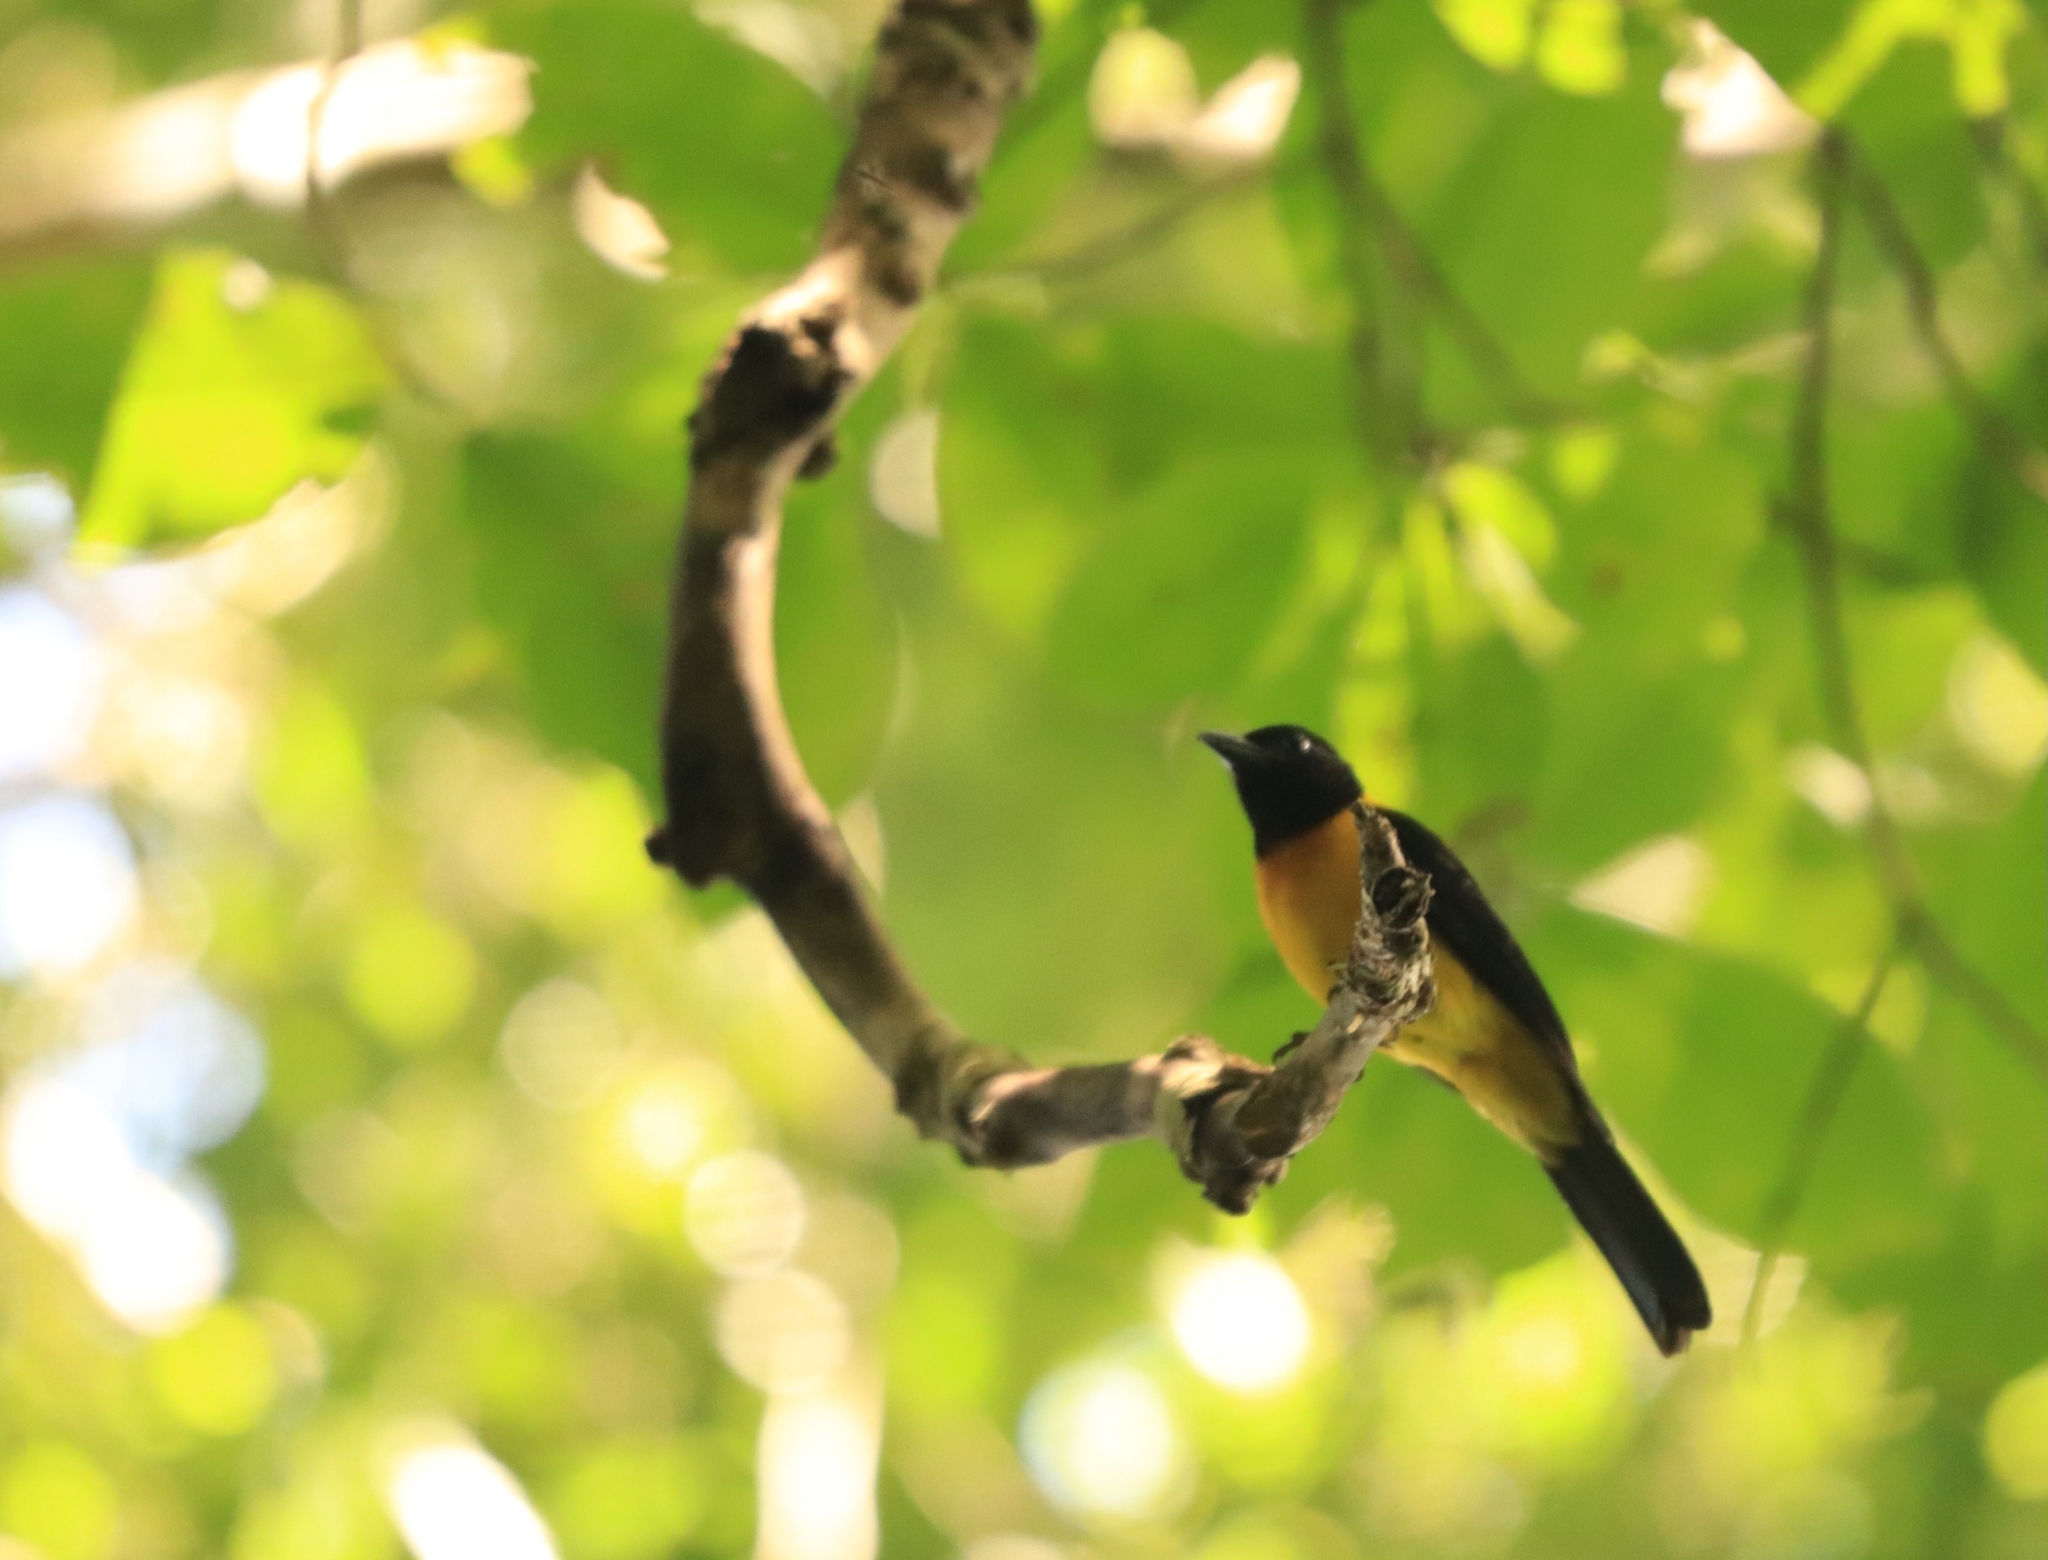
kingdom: Animalia
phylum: Chordata
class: Aves
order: Passeriformes
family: Thraupidae
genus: Lanio
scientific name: Lanio aurantius
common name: Black-throated shrike-tanager
